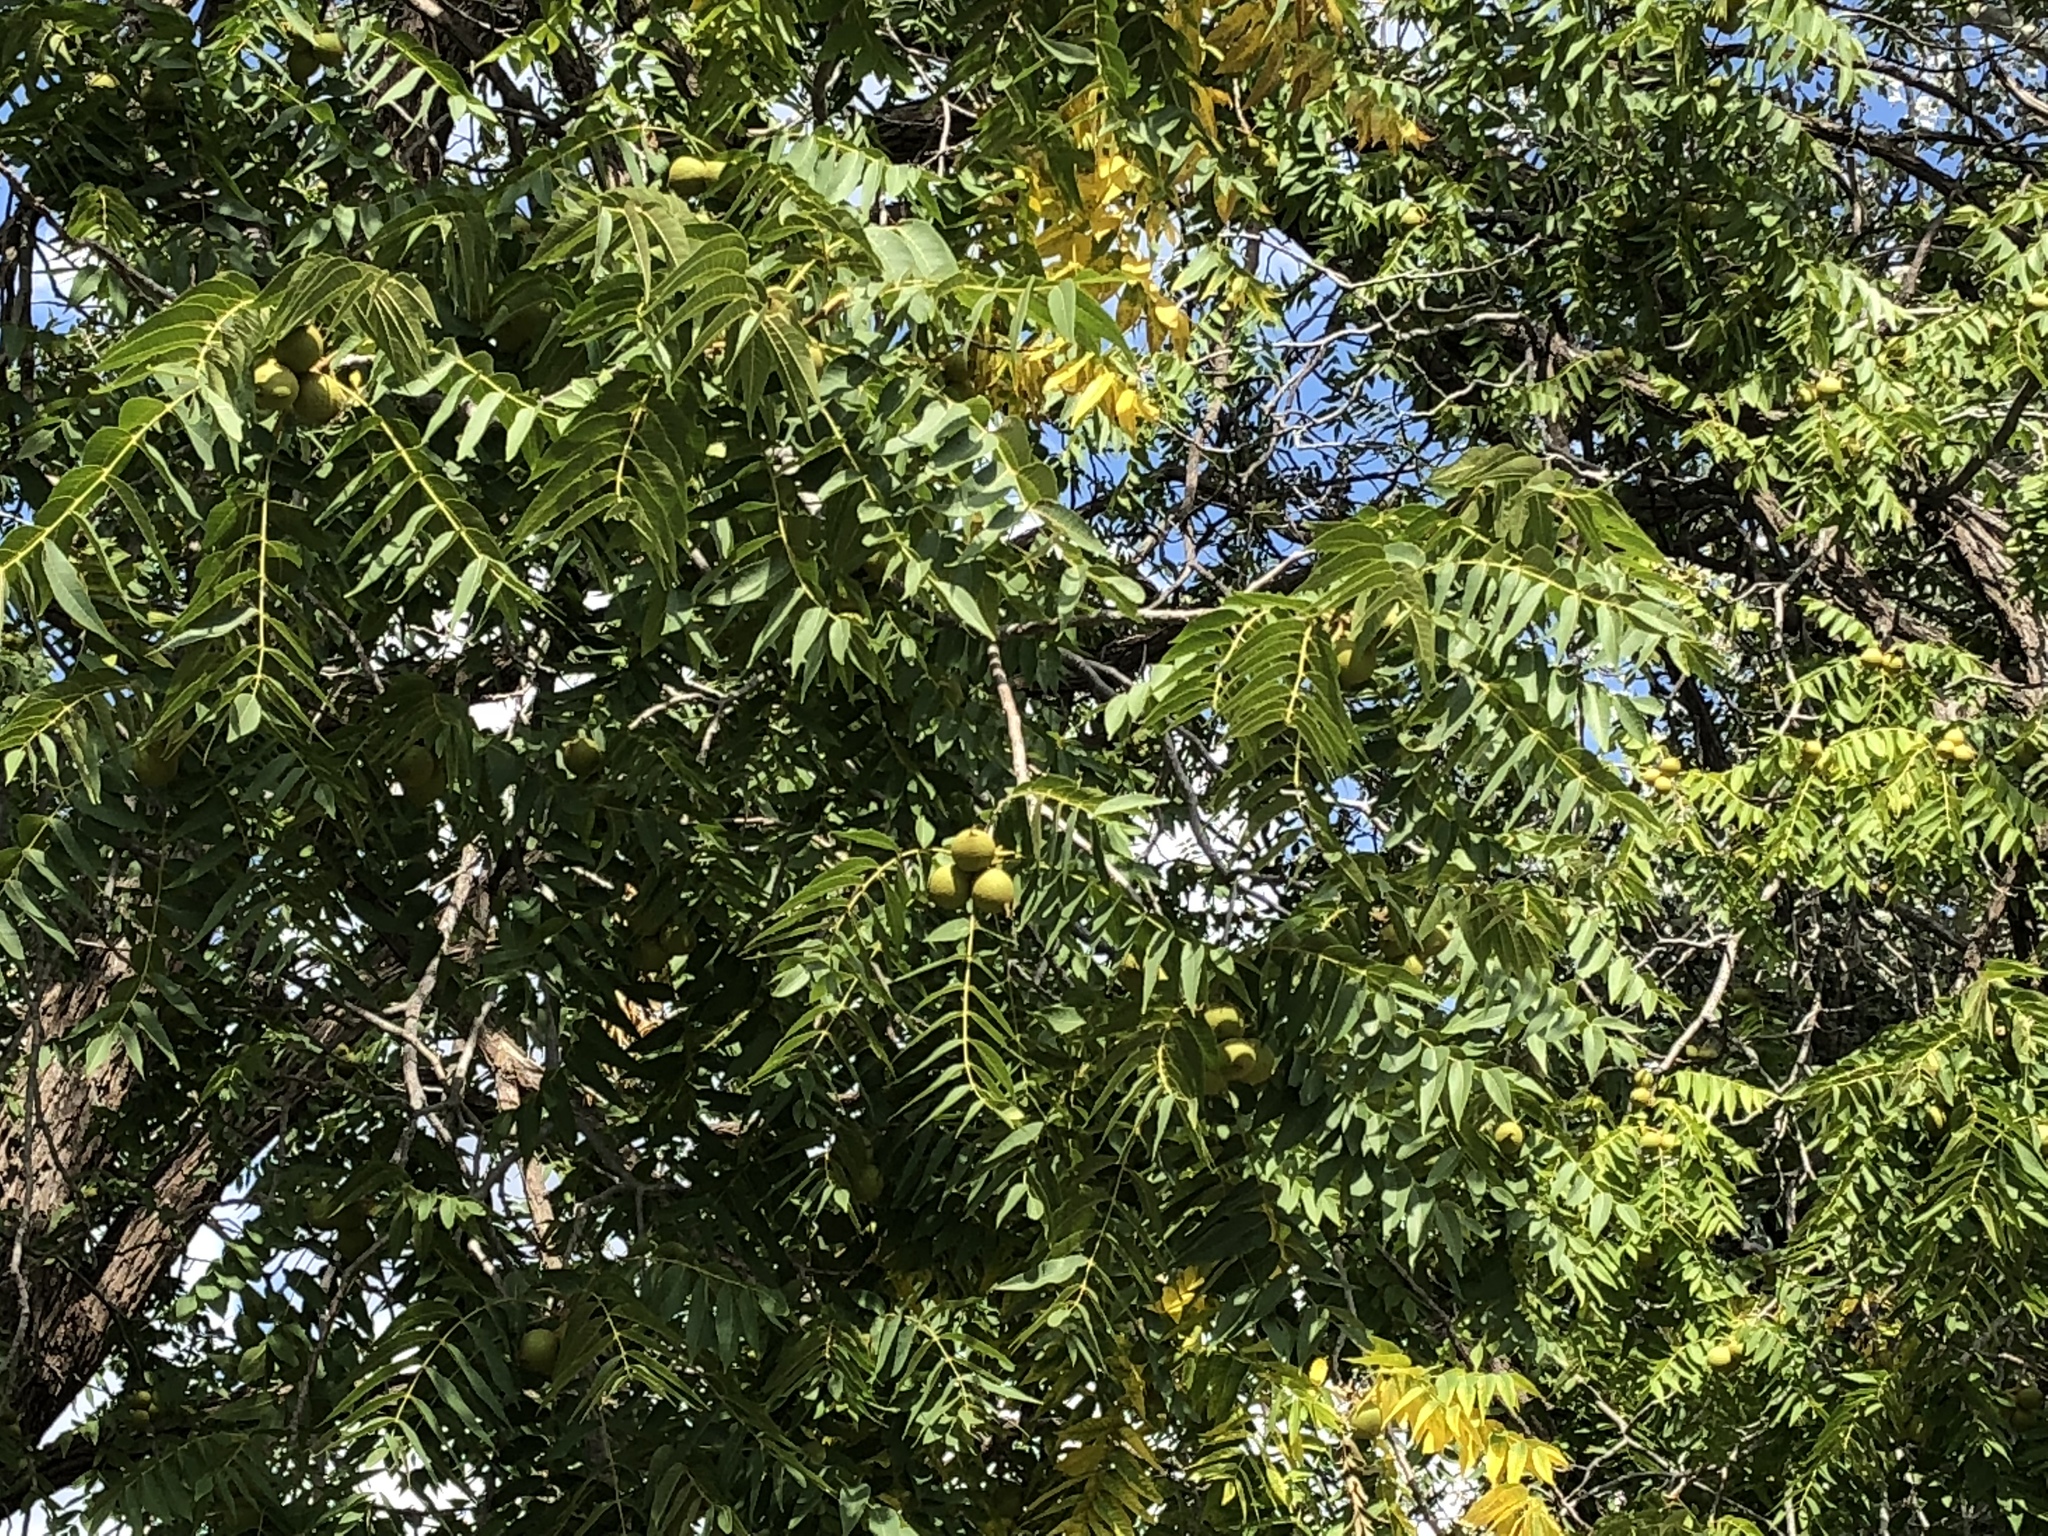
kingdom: Plantae
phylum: Tracheophyta
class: Magnoliopsida
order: Fagales
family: Juglandaceae
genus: Juglans
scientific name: Juglans major
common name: Arizona walnut
